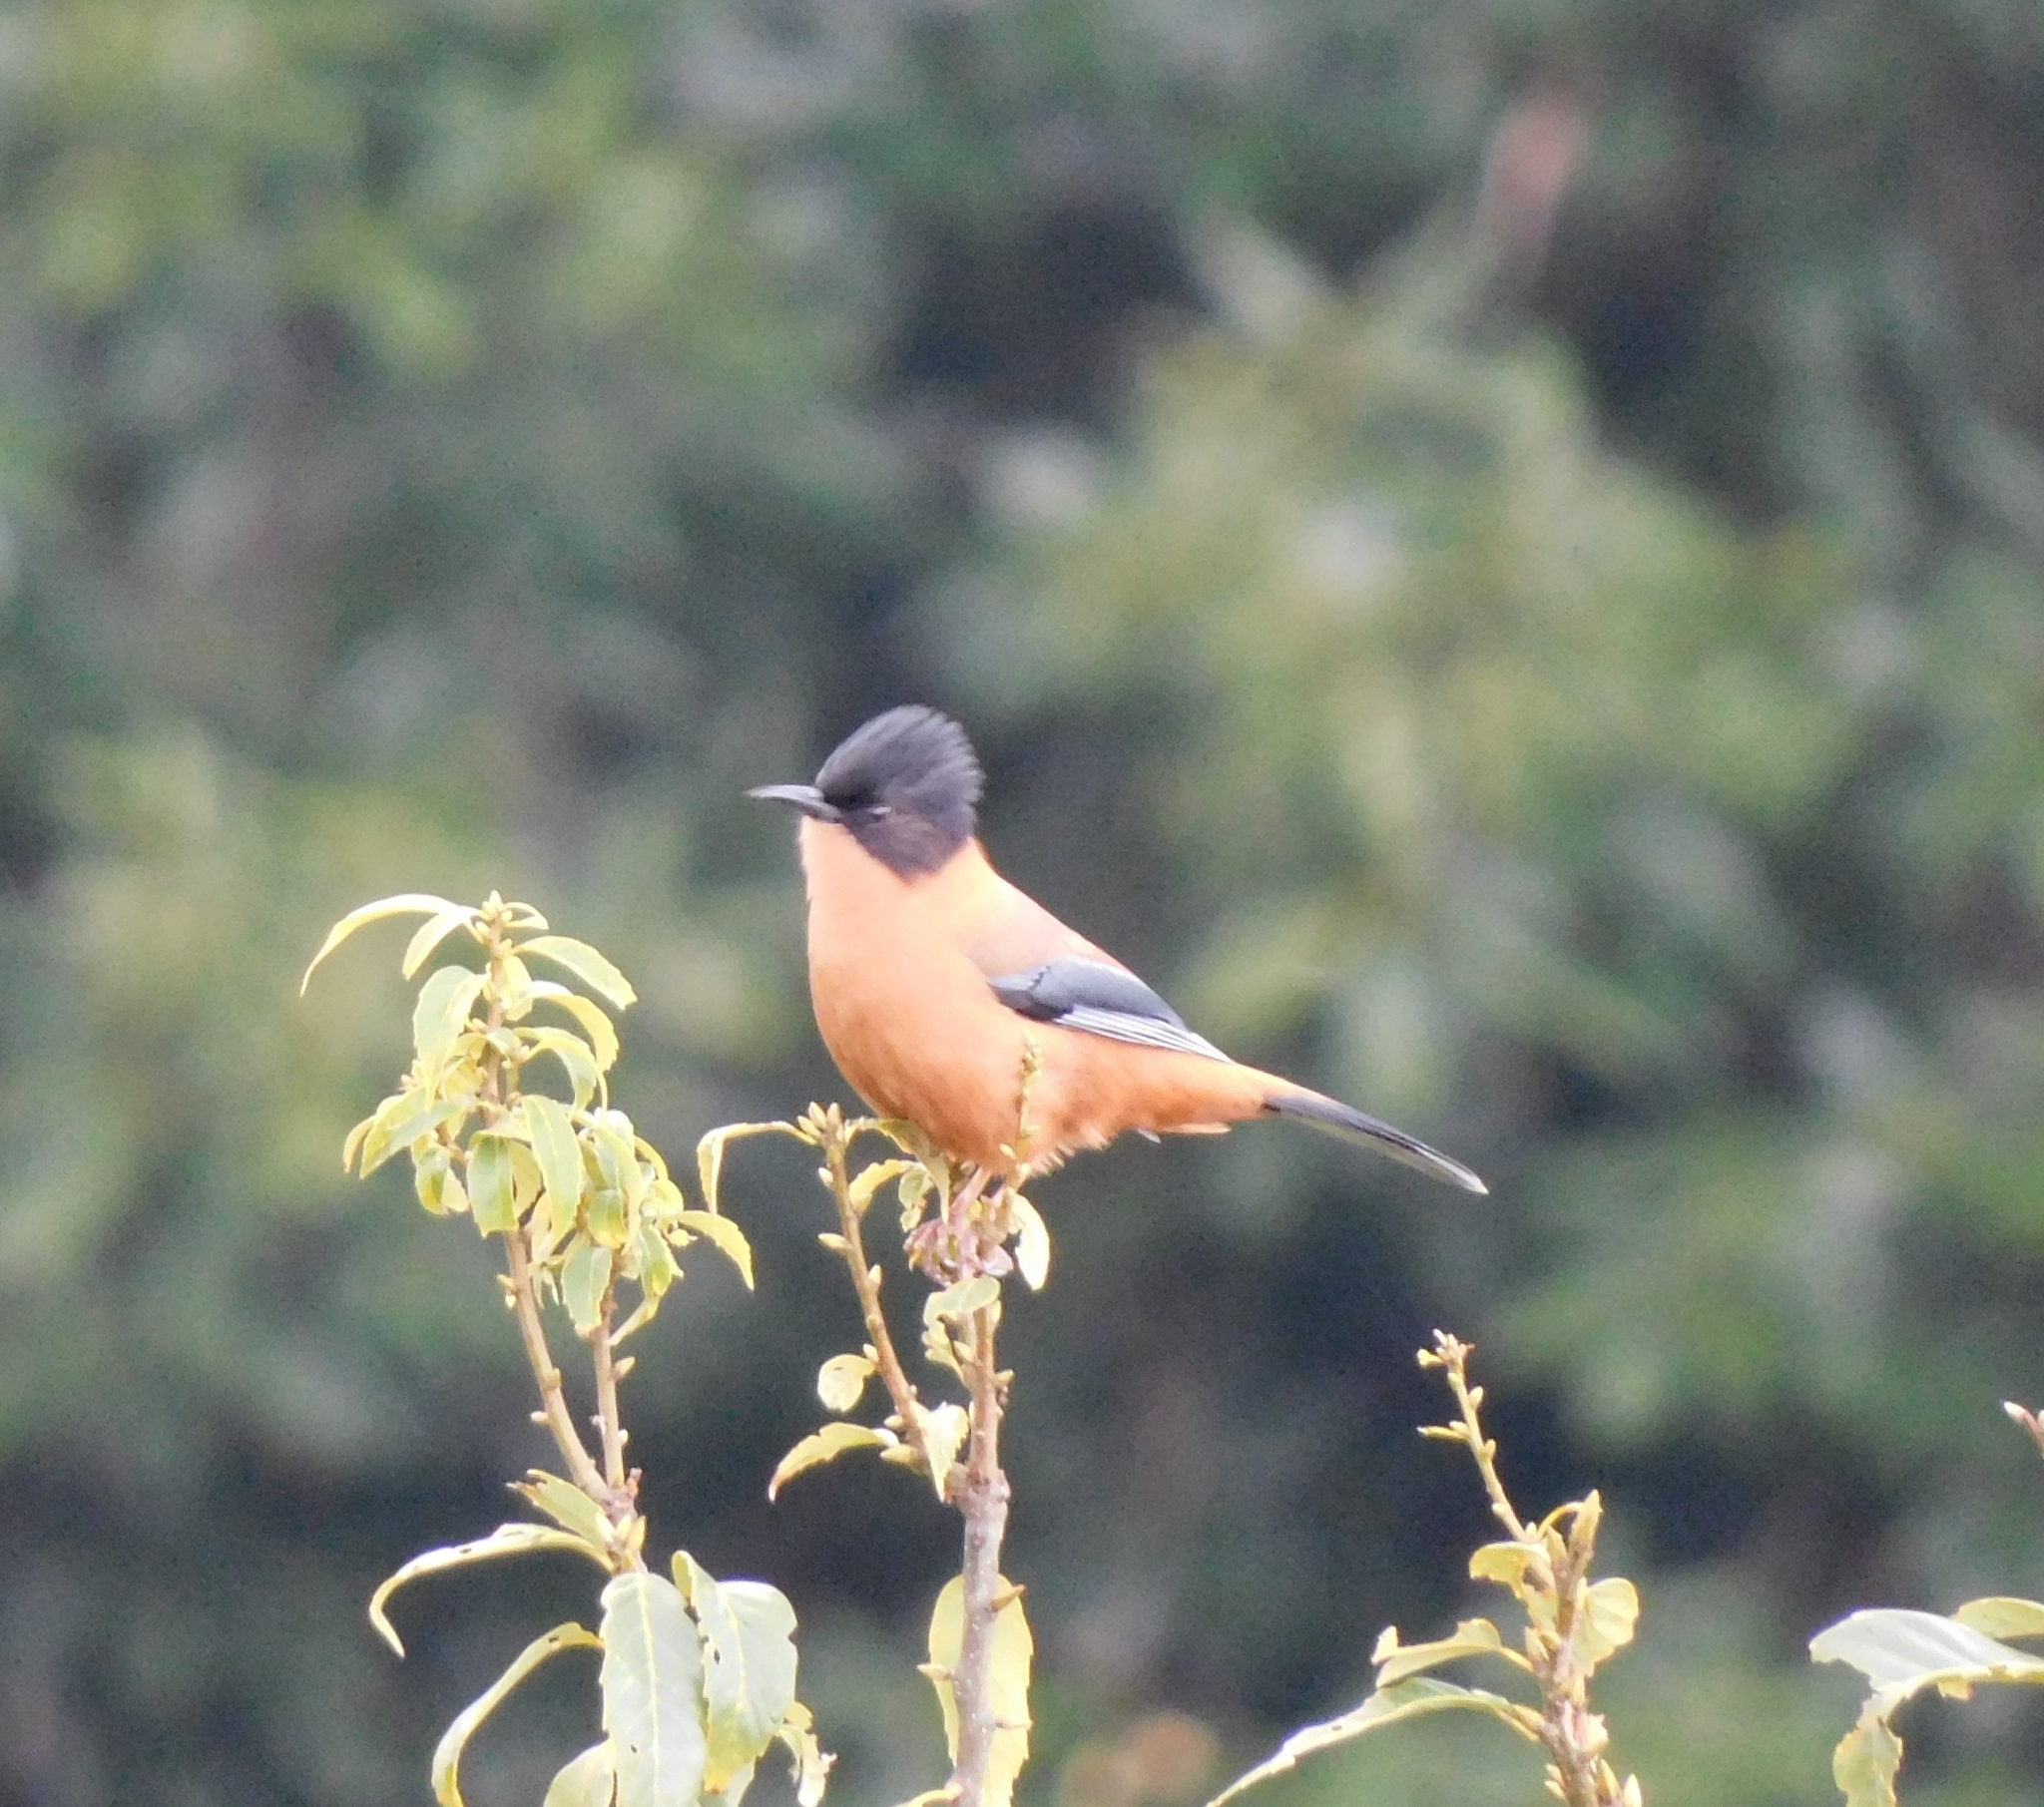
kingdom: Animalia
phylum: Chordata
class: Aves
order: Passeriformes
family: Leiothrichidae
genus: Heterophasia
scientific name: Heterophasia capistrata
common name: Rufous sibia
